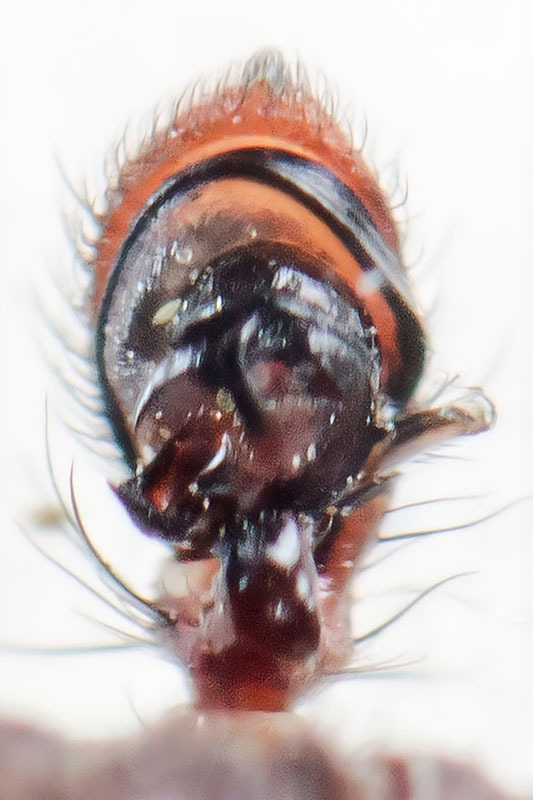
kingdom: Animalia
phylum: Arthropoda
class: Arachnida
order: Araneae
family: Thomisidae
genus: Xysticus
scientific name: Xysticus pseudocristatus
